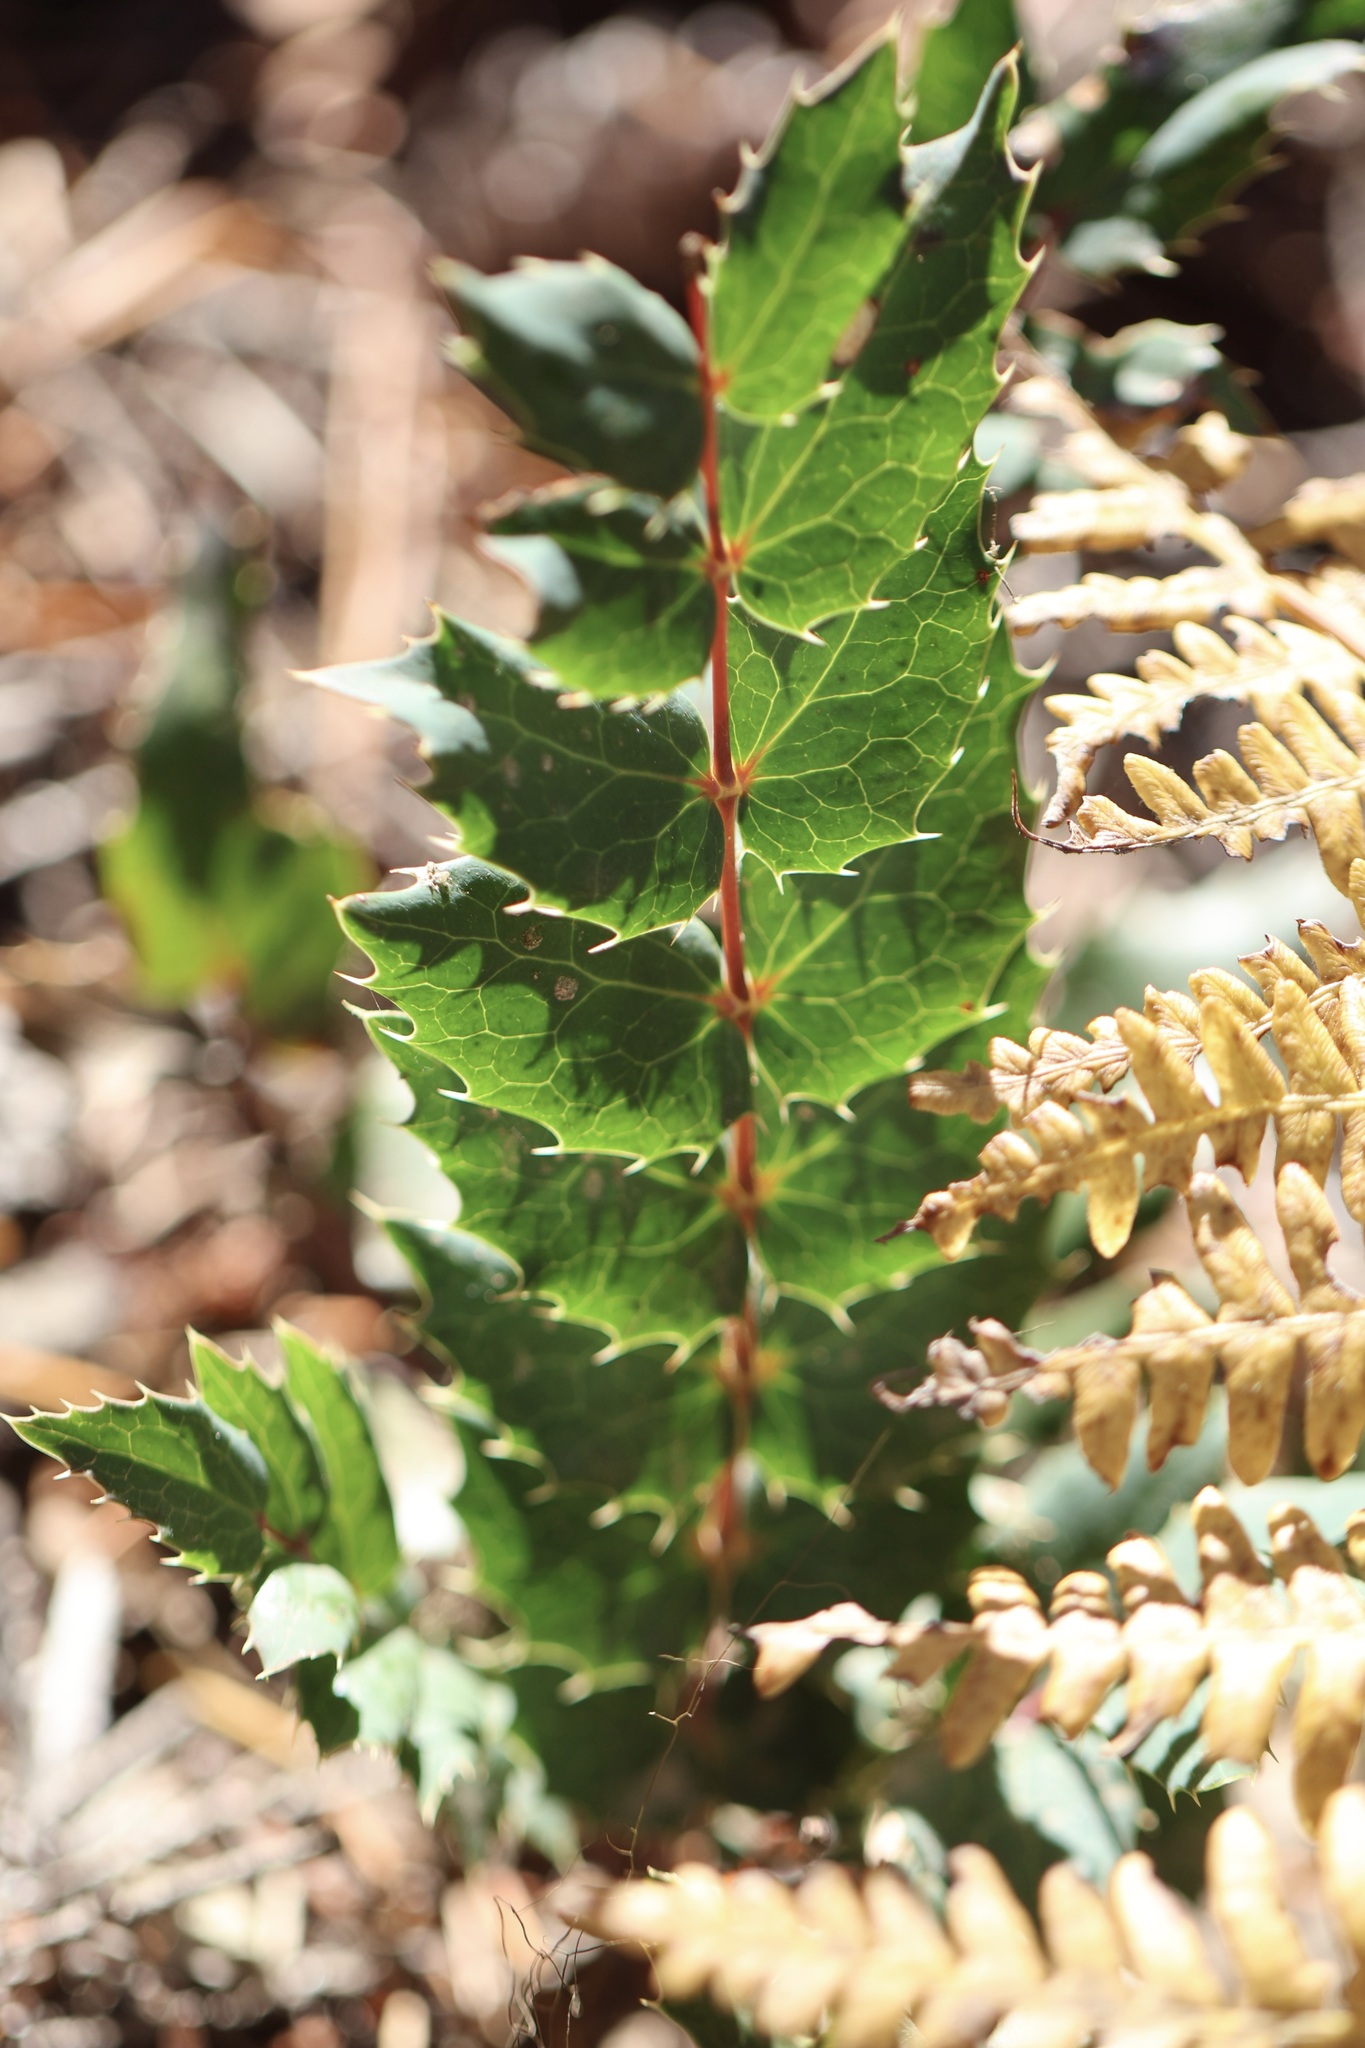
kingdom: Plantae
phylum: Tracheophyta
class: Magnoliopsida
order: Ranunculales
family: Berberidaceae
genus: Mahonia
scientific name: Mahonia nervosa
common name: Cascade oregon-grape
